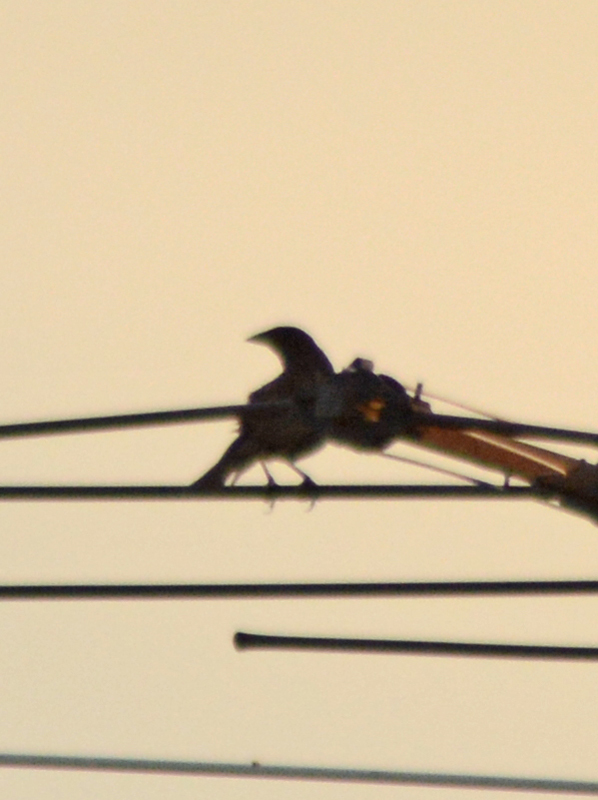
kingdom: Animalia
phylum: Chordata
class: Aves
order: Passeriformes
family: Icteridae
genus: Molothrus
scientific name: Molothrus aeneus
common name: Bronzed cowbird
